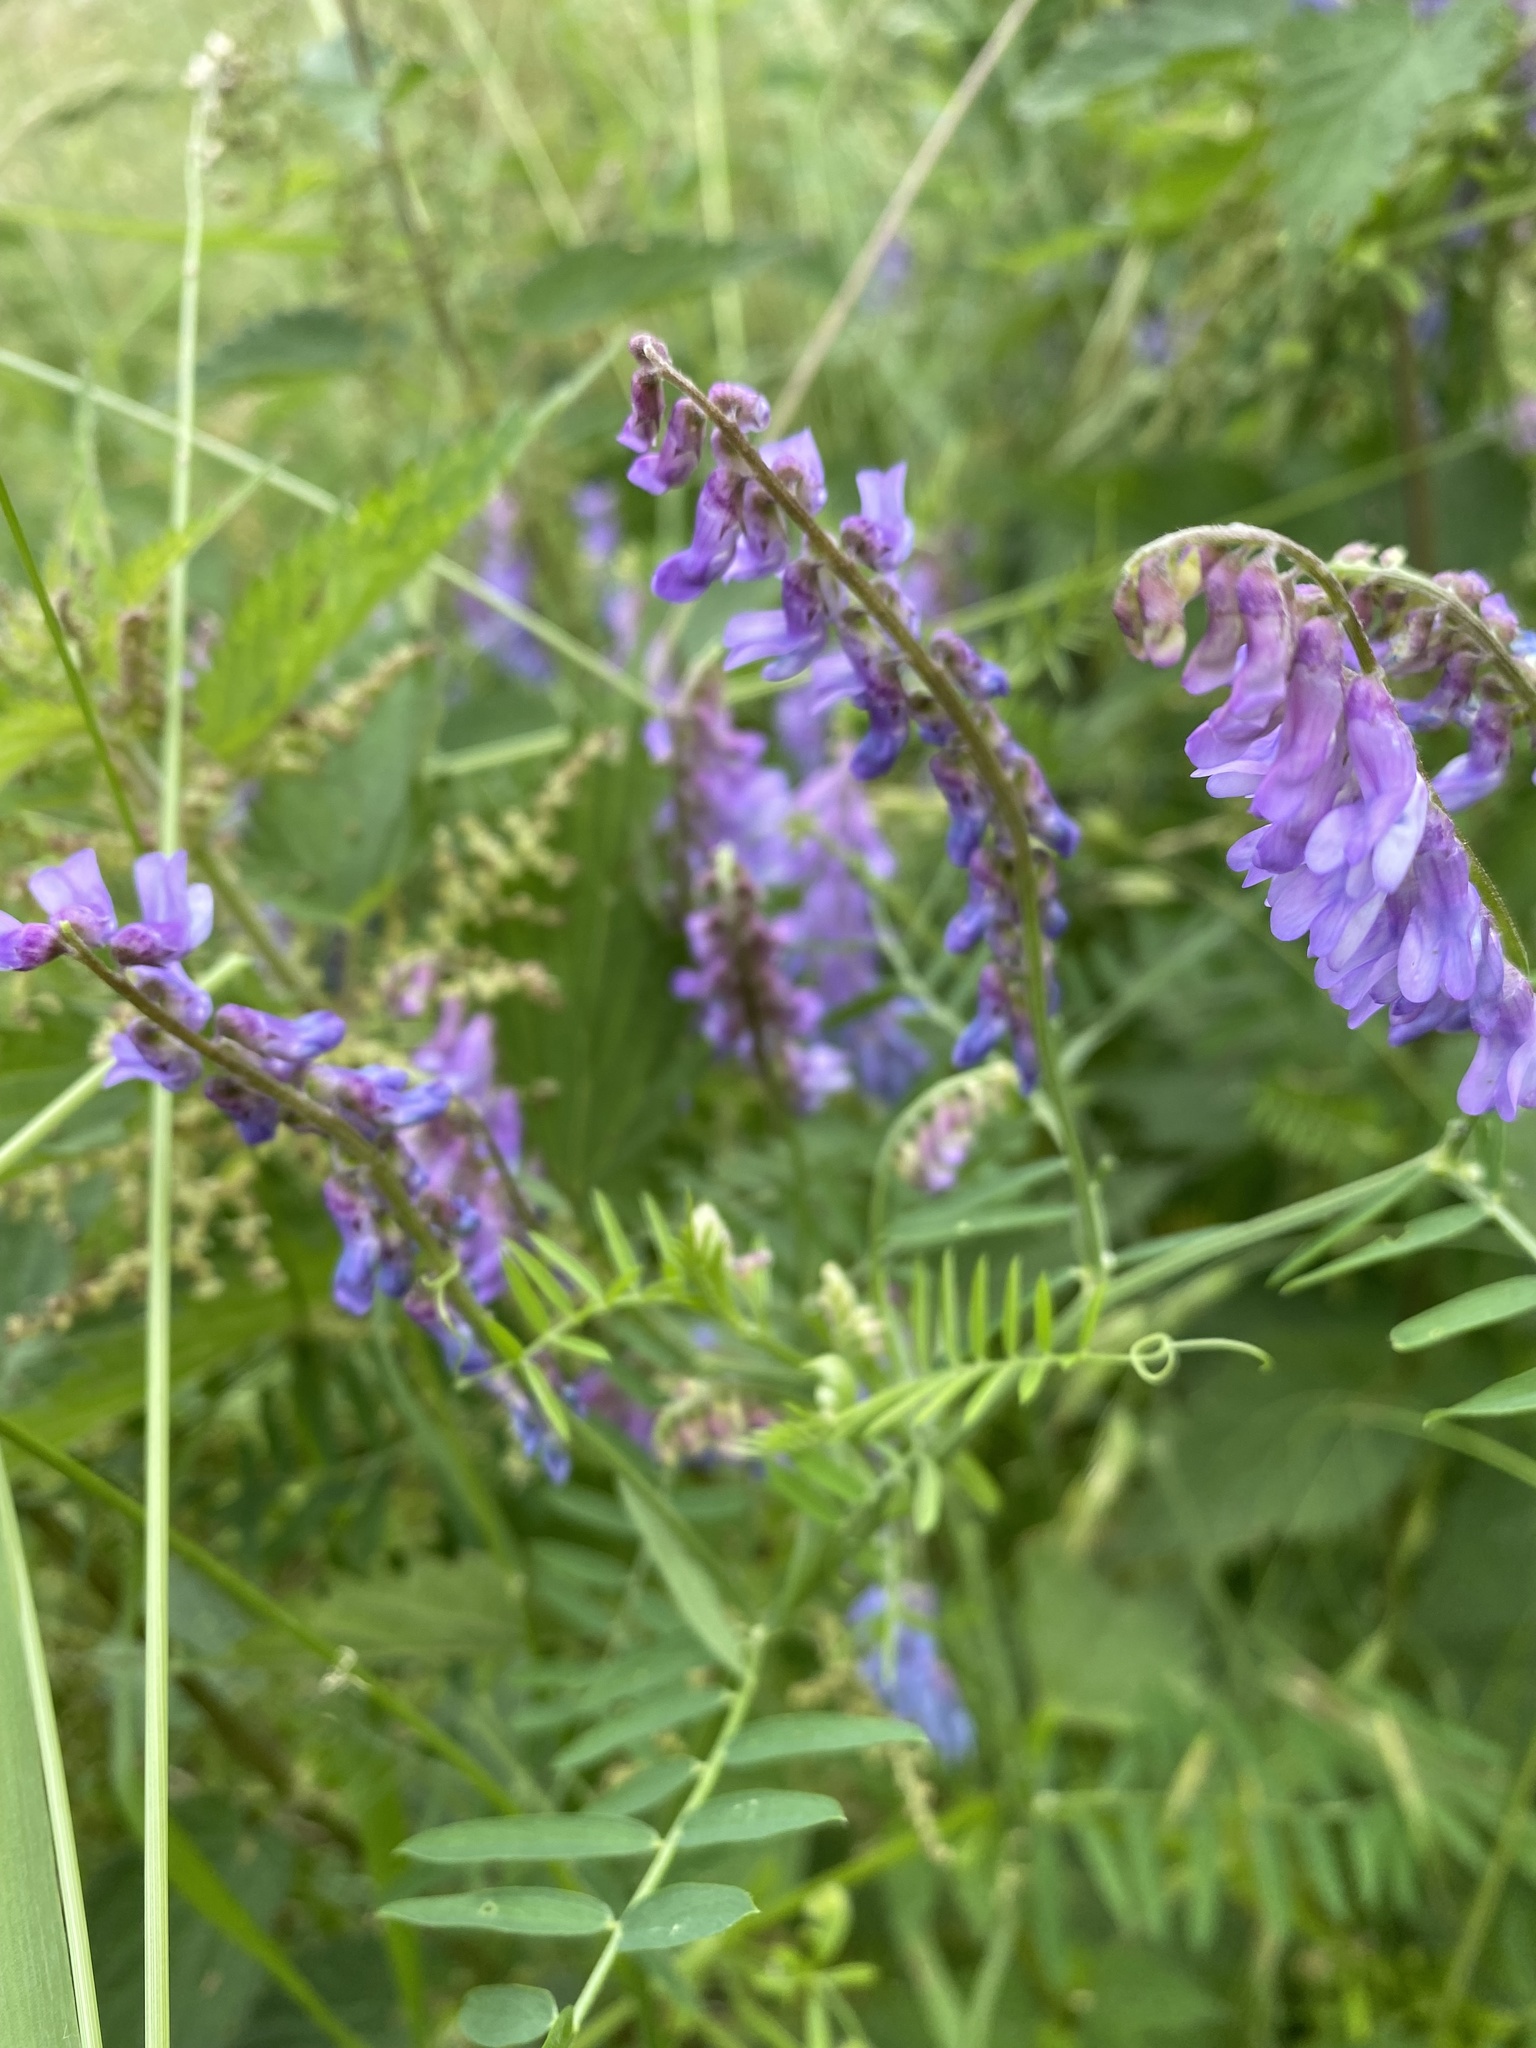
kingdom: Plantae
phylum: Tracheophyta
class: Magnoliopsida
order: Fabales
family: Fabaceae
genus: Vicia
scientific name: Vicia cracca
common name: Bird vetch
